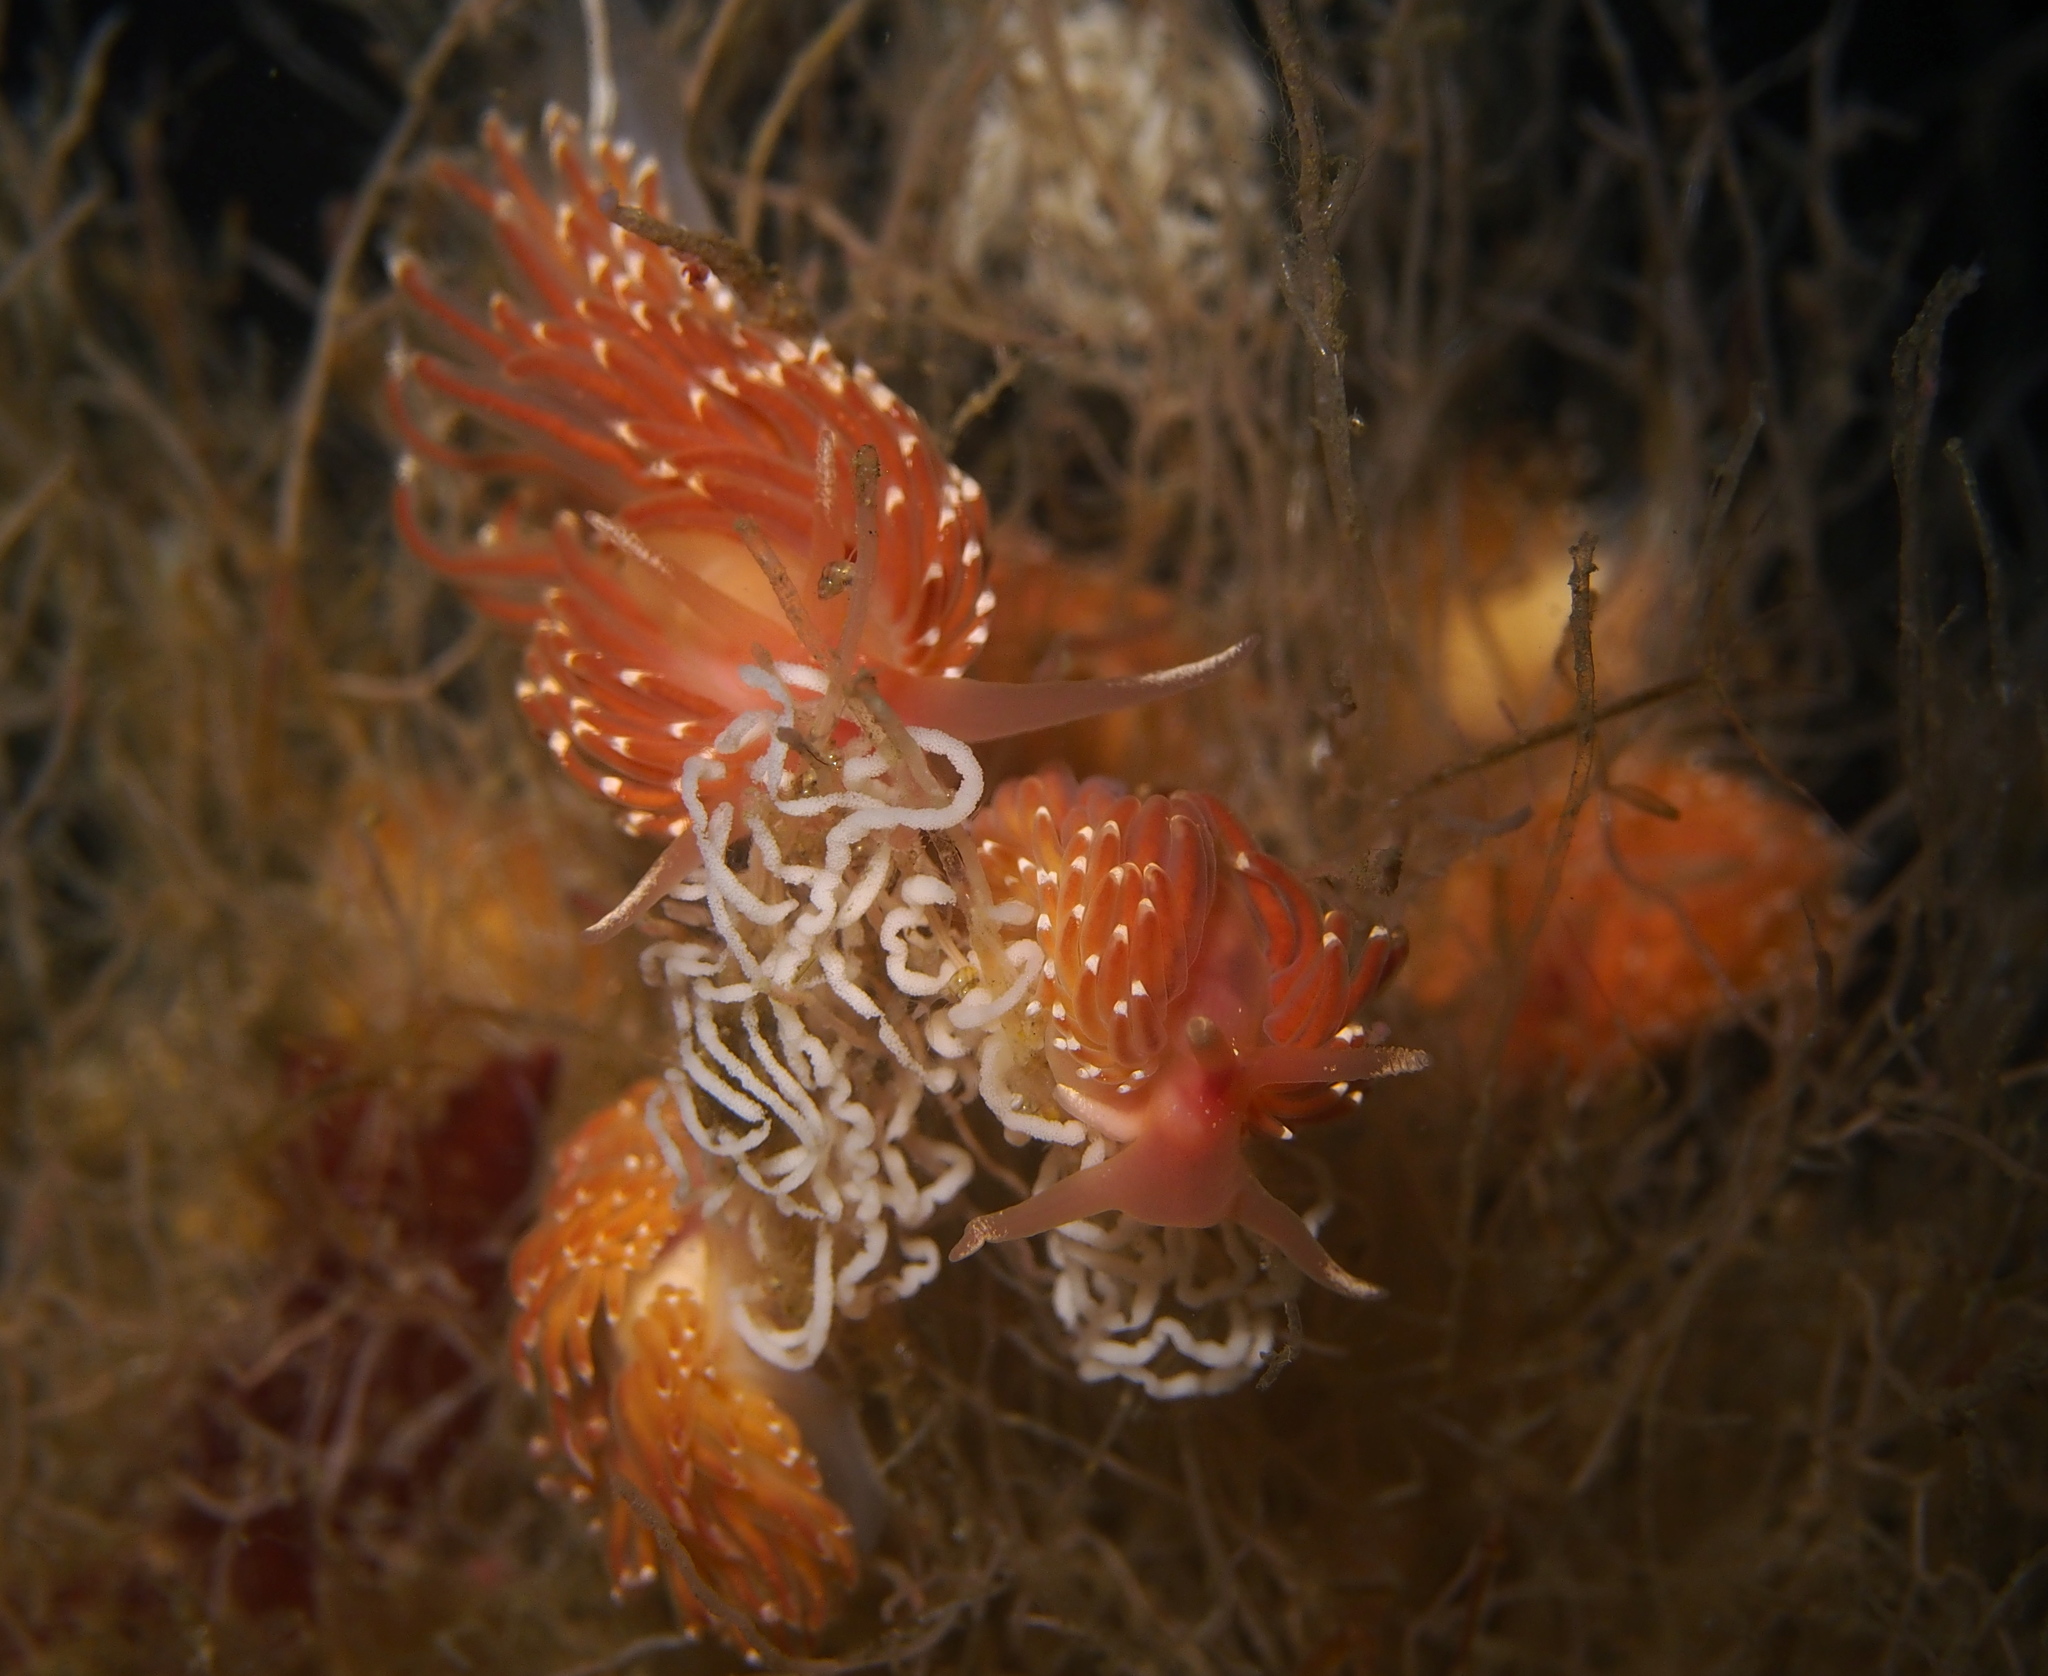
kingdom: Animalia
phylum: Mollusca
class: Gastropoda
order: Nudibranchia
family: Facelinidae
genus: Facelina
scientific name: Facelina bostoniensis
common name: Boston facelina
